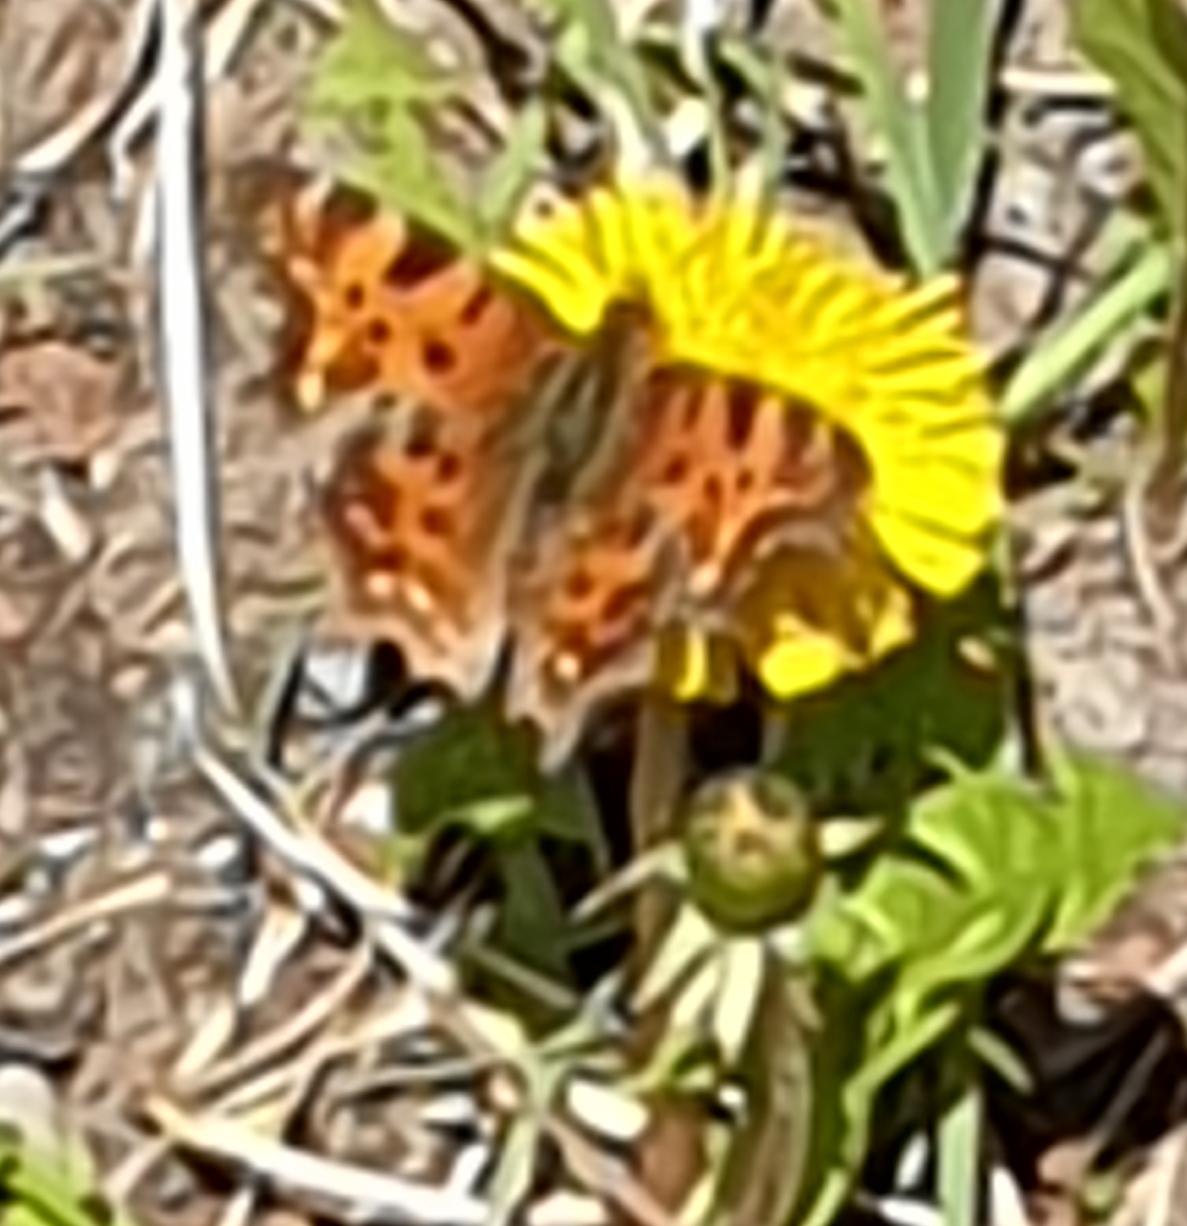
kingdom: Animalia
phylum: Arthropoda
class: Insecta
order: Lepidoptera
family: Nymphalidae
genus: Polygonia
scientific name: Polygonia c-album
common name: Comma
